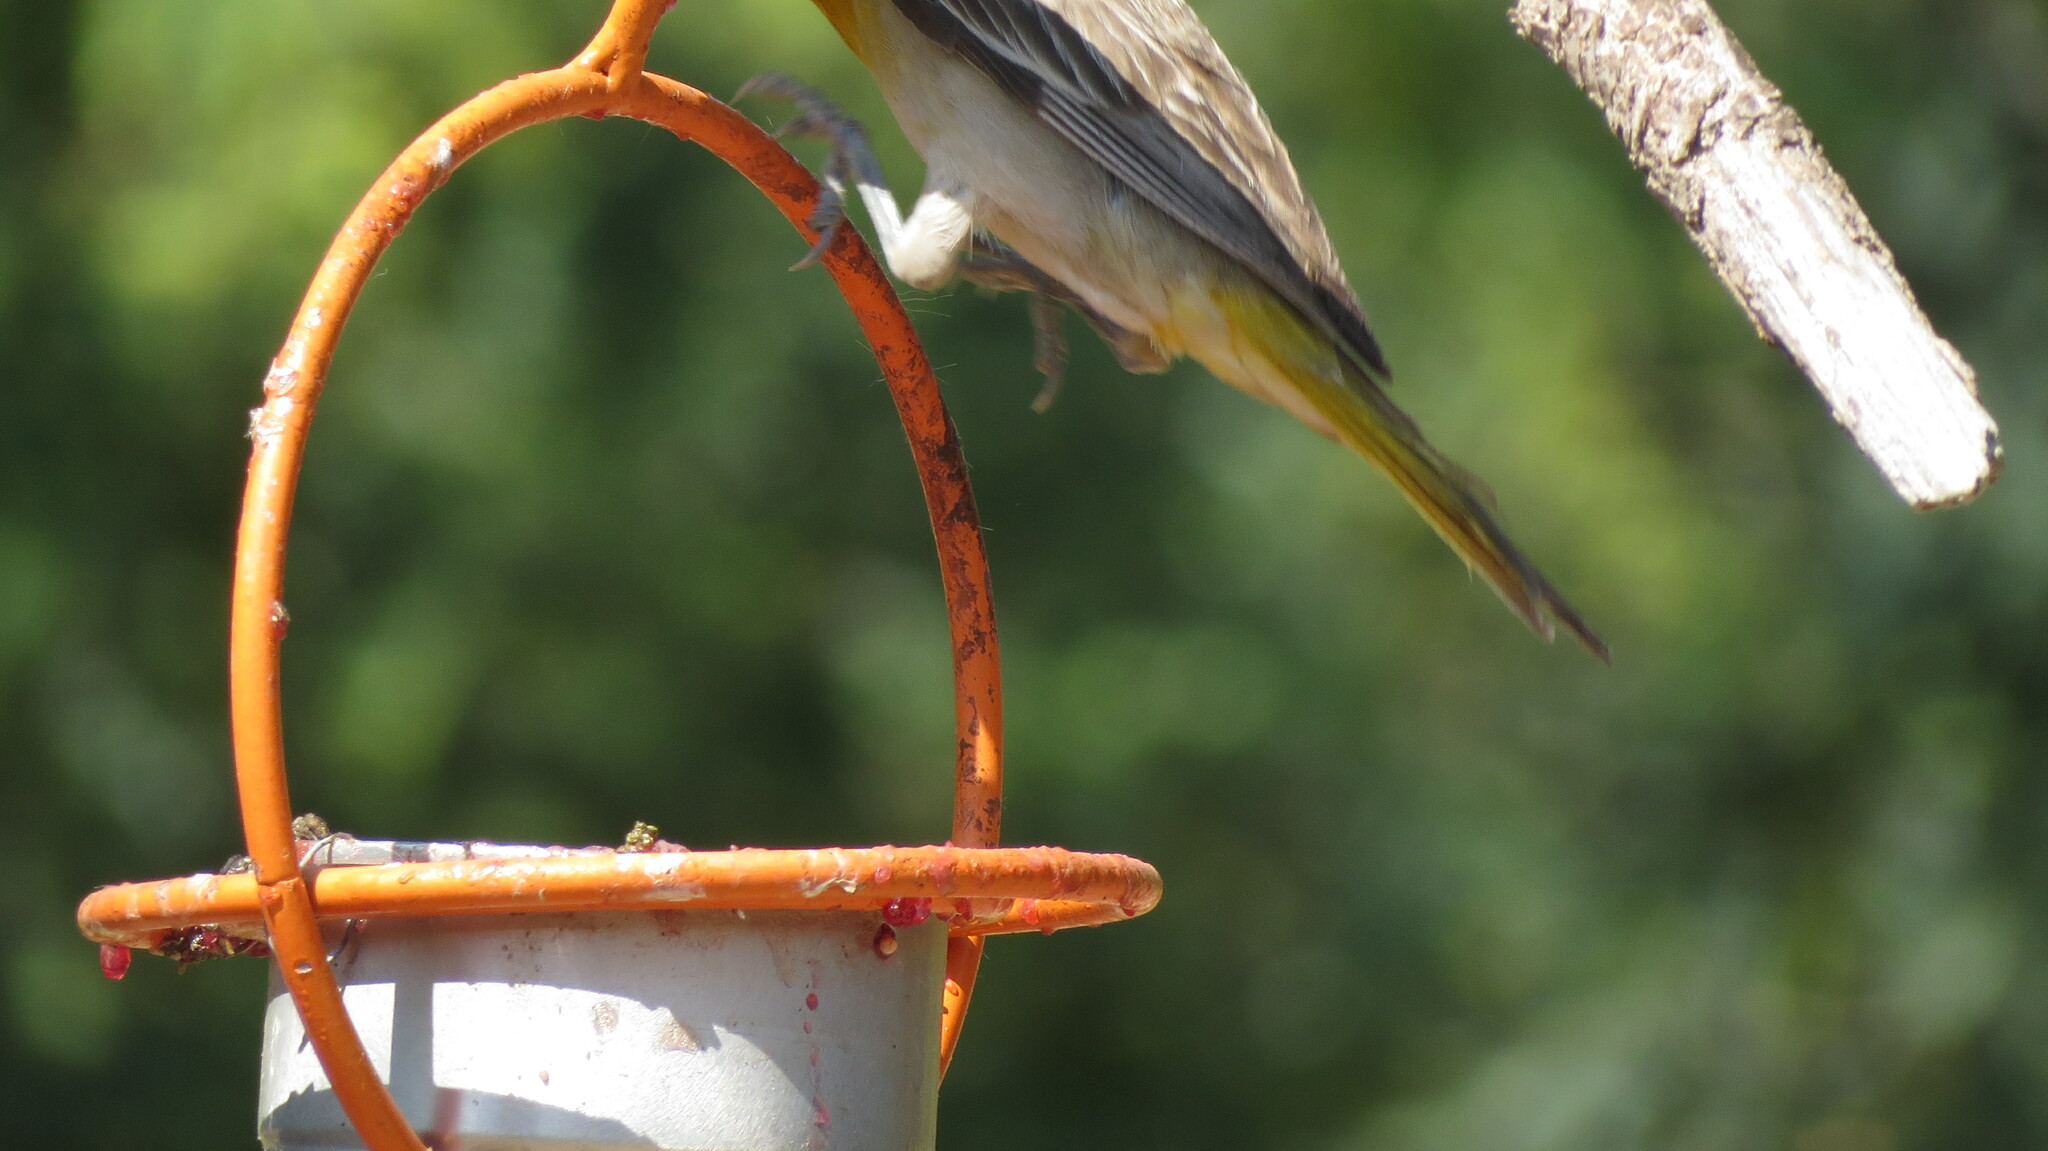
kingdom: Animalia
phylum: Chordata
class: Aves
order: Passeriformes
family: Icteridae
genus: Icterus
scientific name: Icterus bullockii
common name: Bullock's oriole
